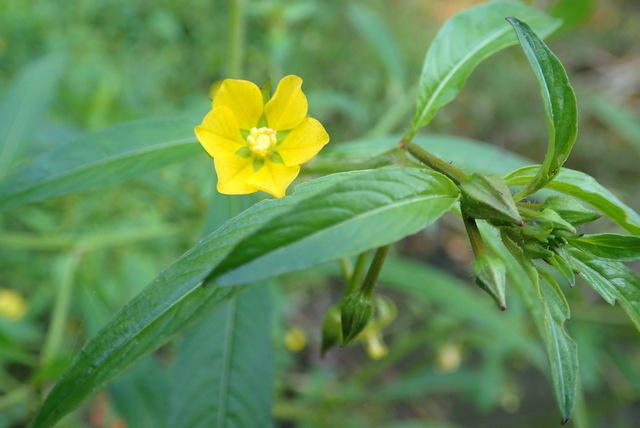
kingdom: Plantae
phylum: Tracheophyta
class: Magnoliopsida
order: Myrtales
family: Onagraceae
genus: Ludwigia
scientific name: Ludwigia leptocarpa
